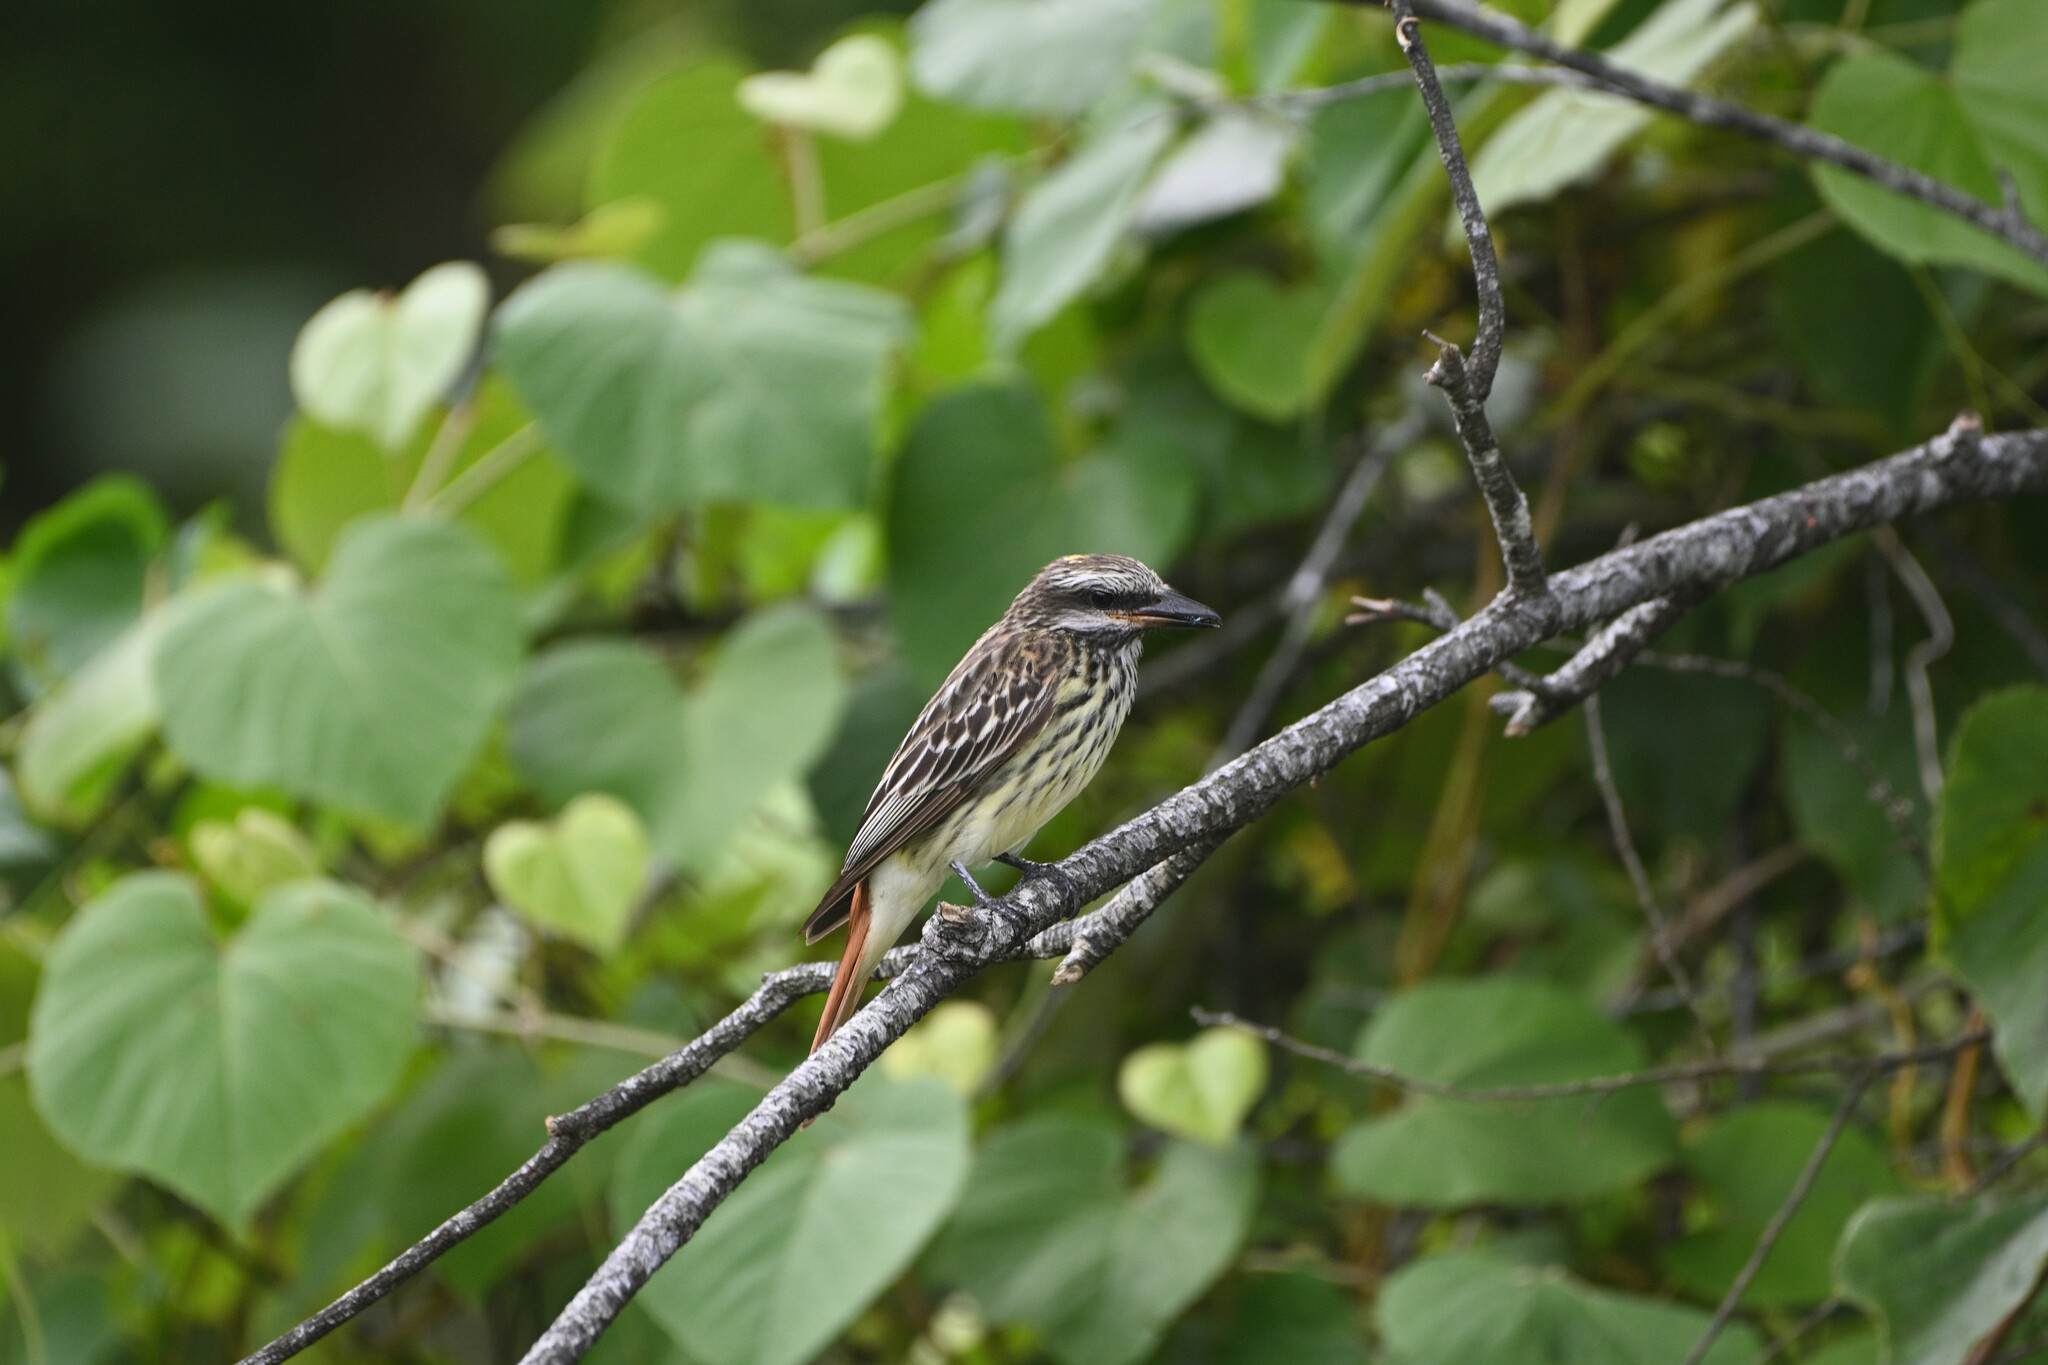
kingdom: Animalia
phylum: Chordata
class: Aves
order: Passeriformes
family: Tyrannidae
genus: Myiodynastes
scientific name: Myiodynastes luteiventris
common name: Sulphur-bellied flycatcher
